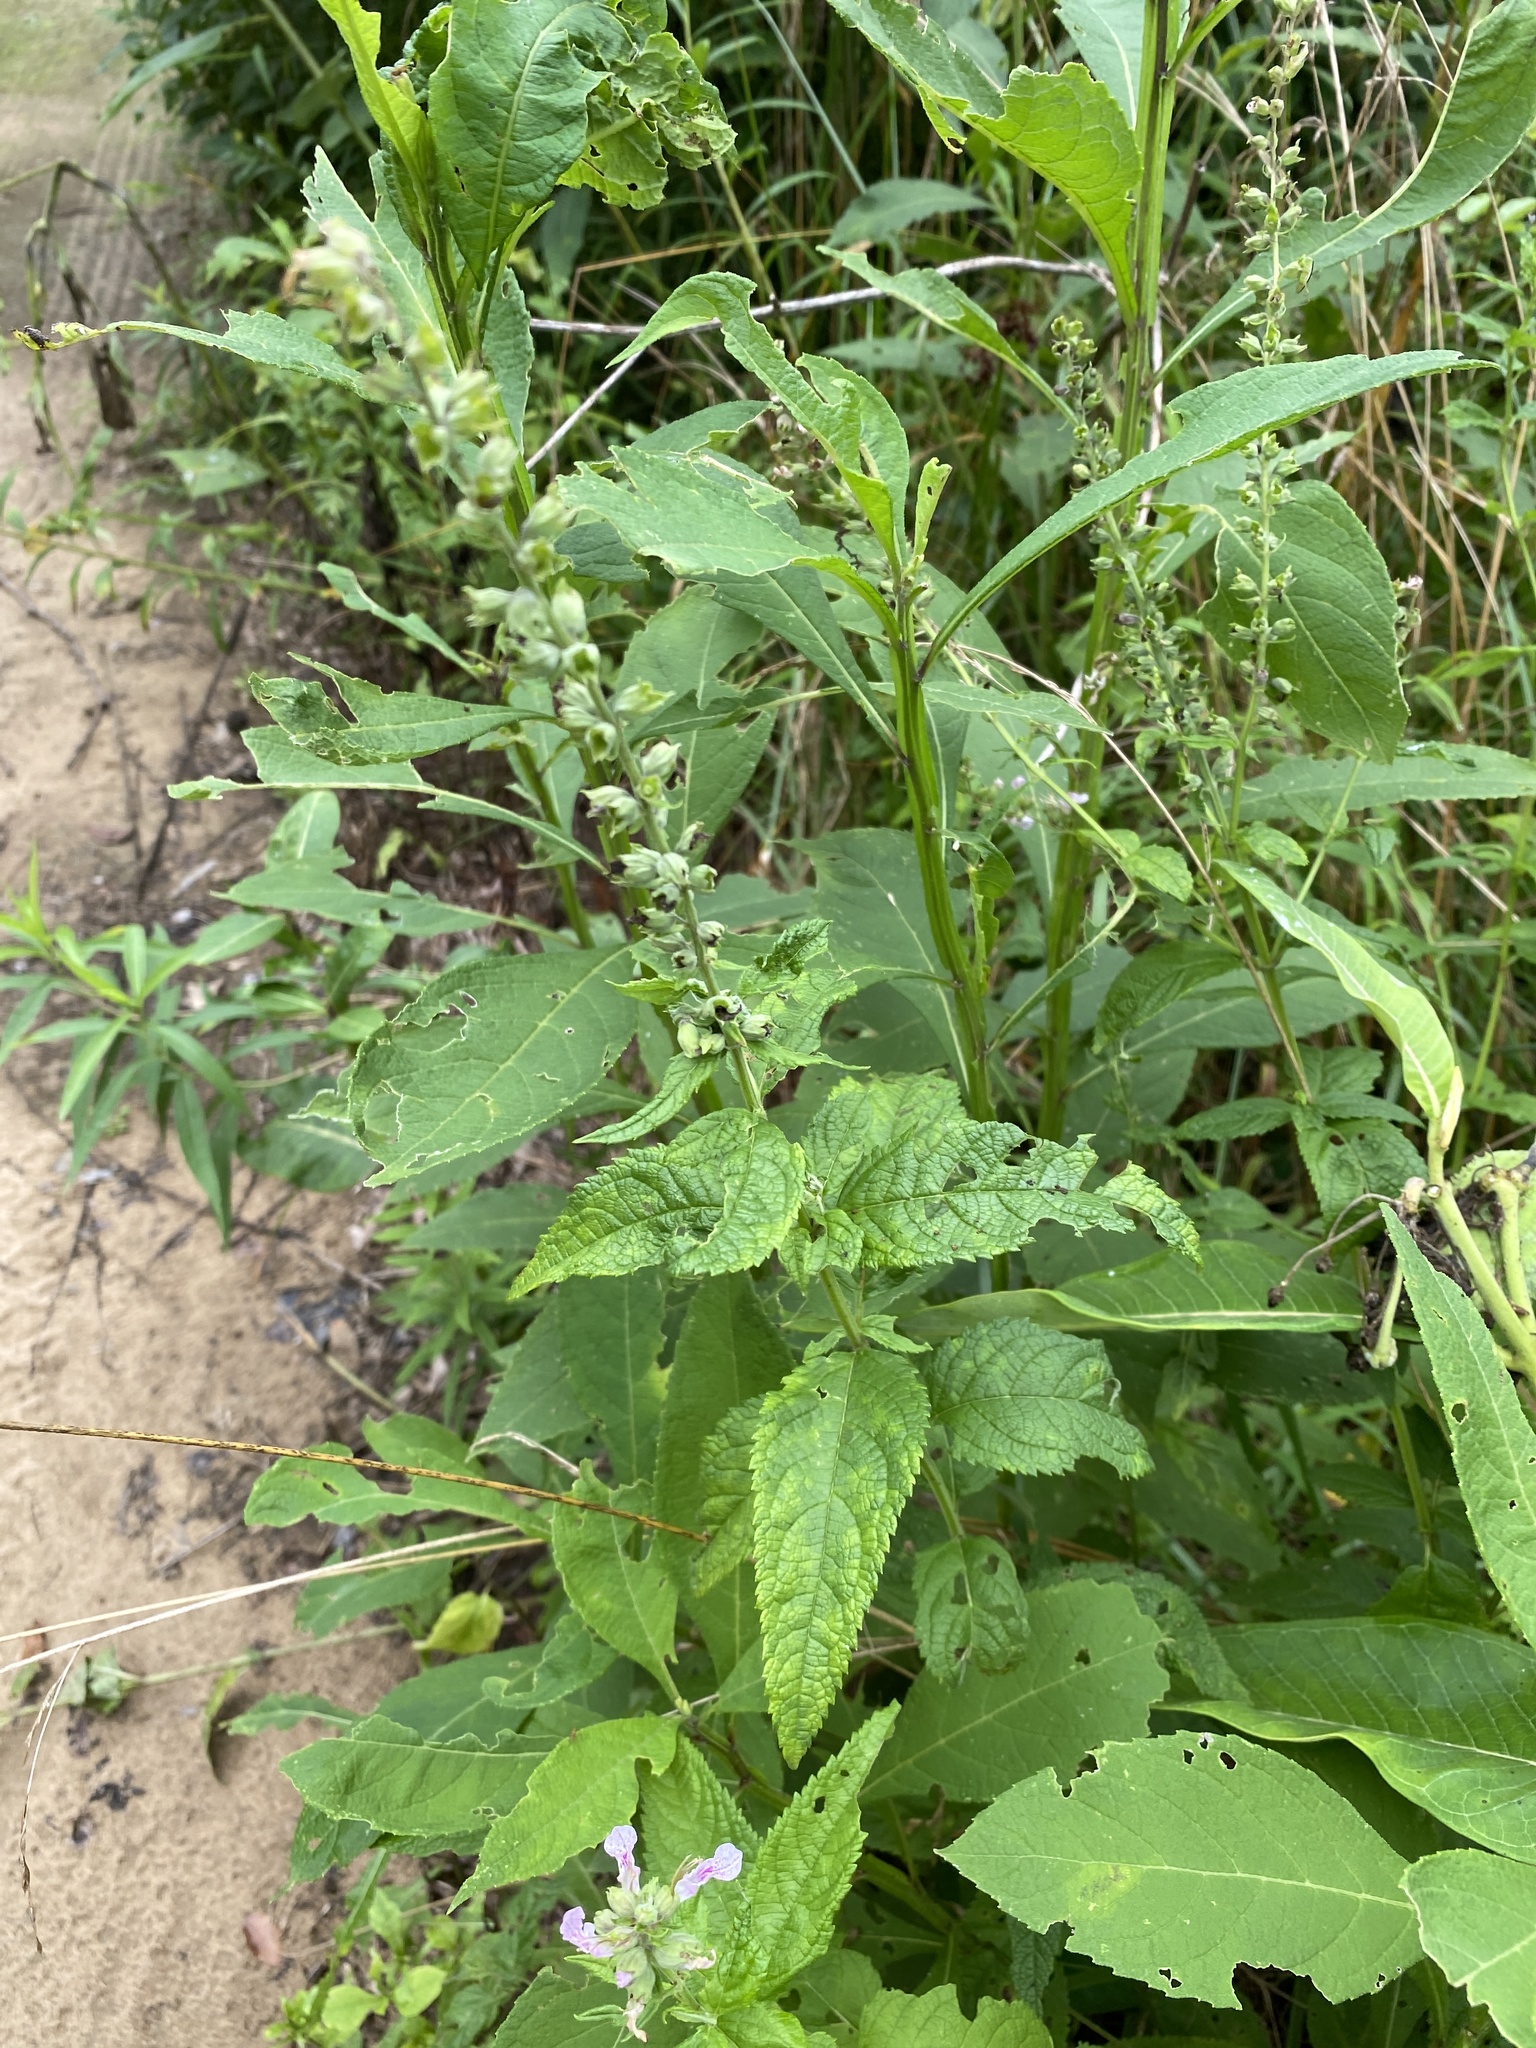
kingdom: Plantae
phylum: Tracheophyta
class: Magnoliopsida
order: Lamiales
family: Lamiaceae
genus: Teucrium
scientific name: Teucrium canadense
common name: American germander
